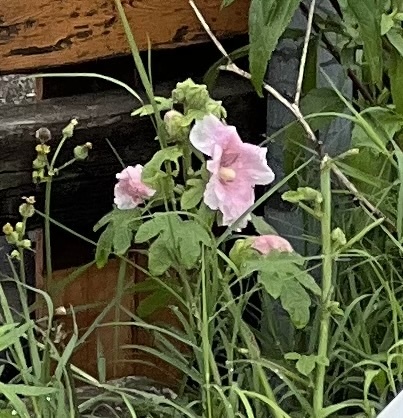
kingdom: Plantae
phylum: Tracheophyta
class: Magnoliopsida
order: Malvales
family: Malvaceae
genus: Alcea
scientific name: Alcea rosea
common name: Hollyhock
